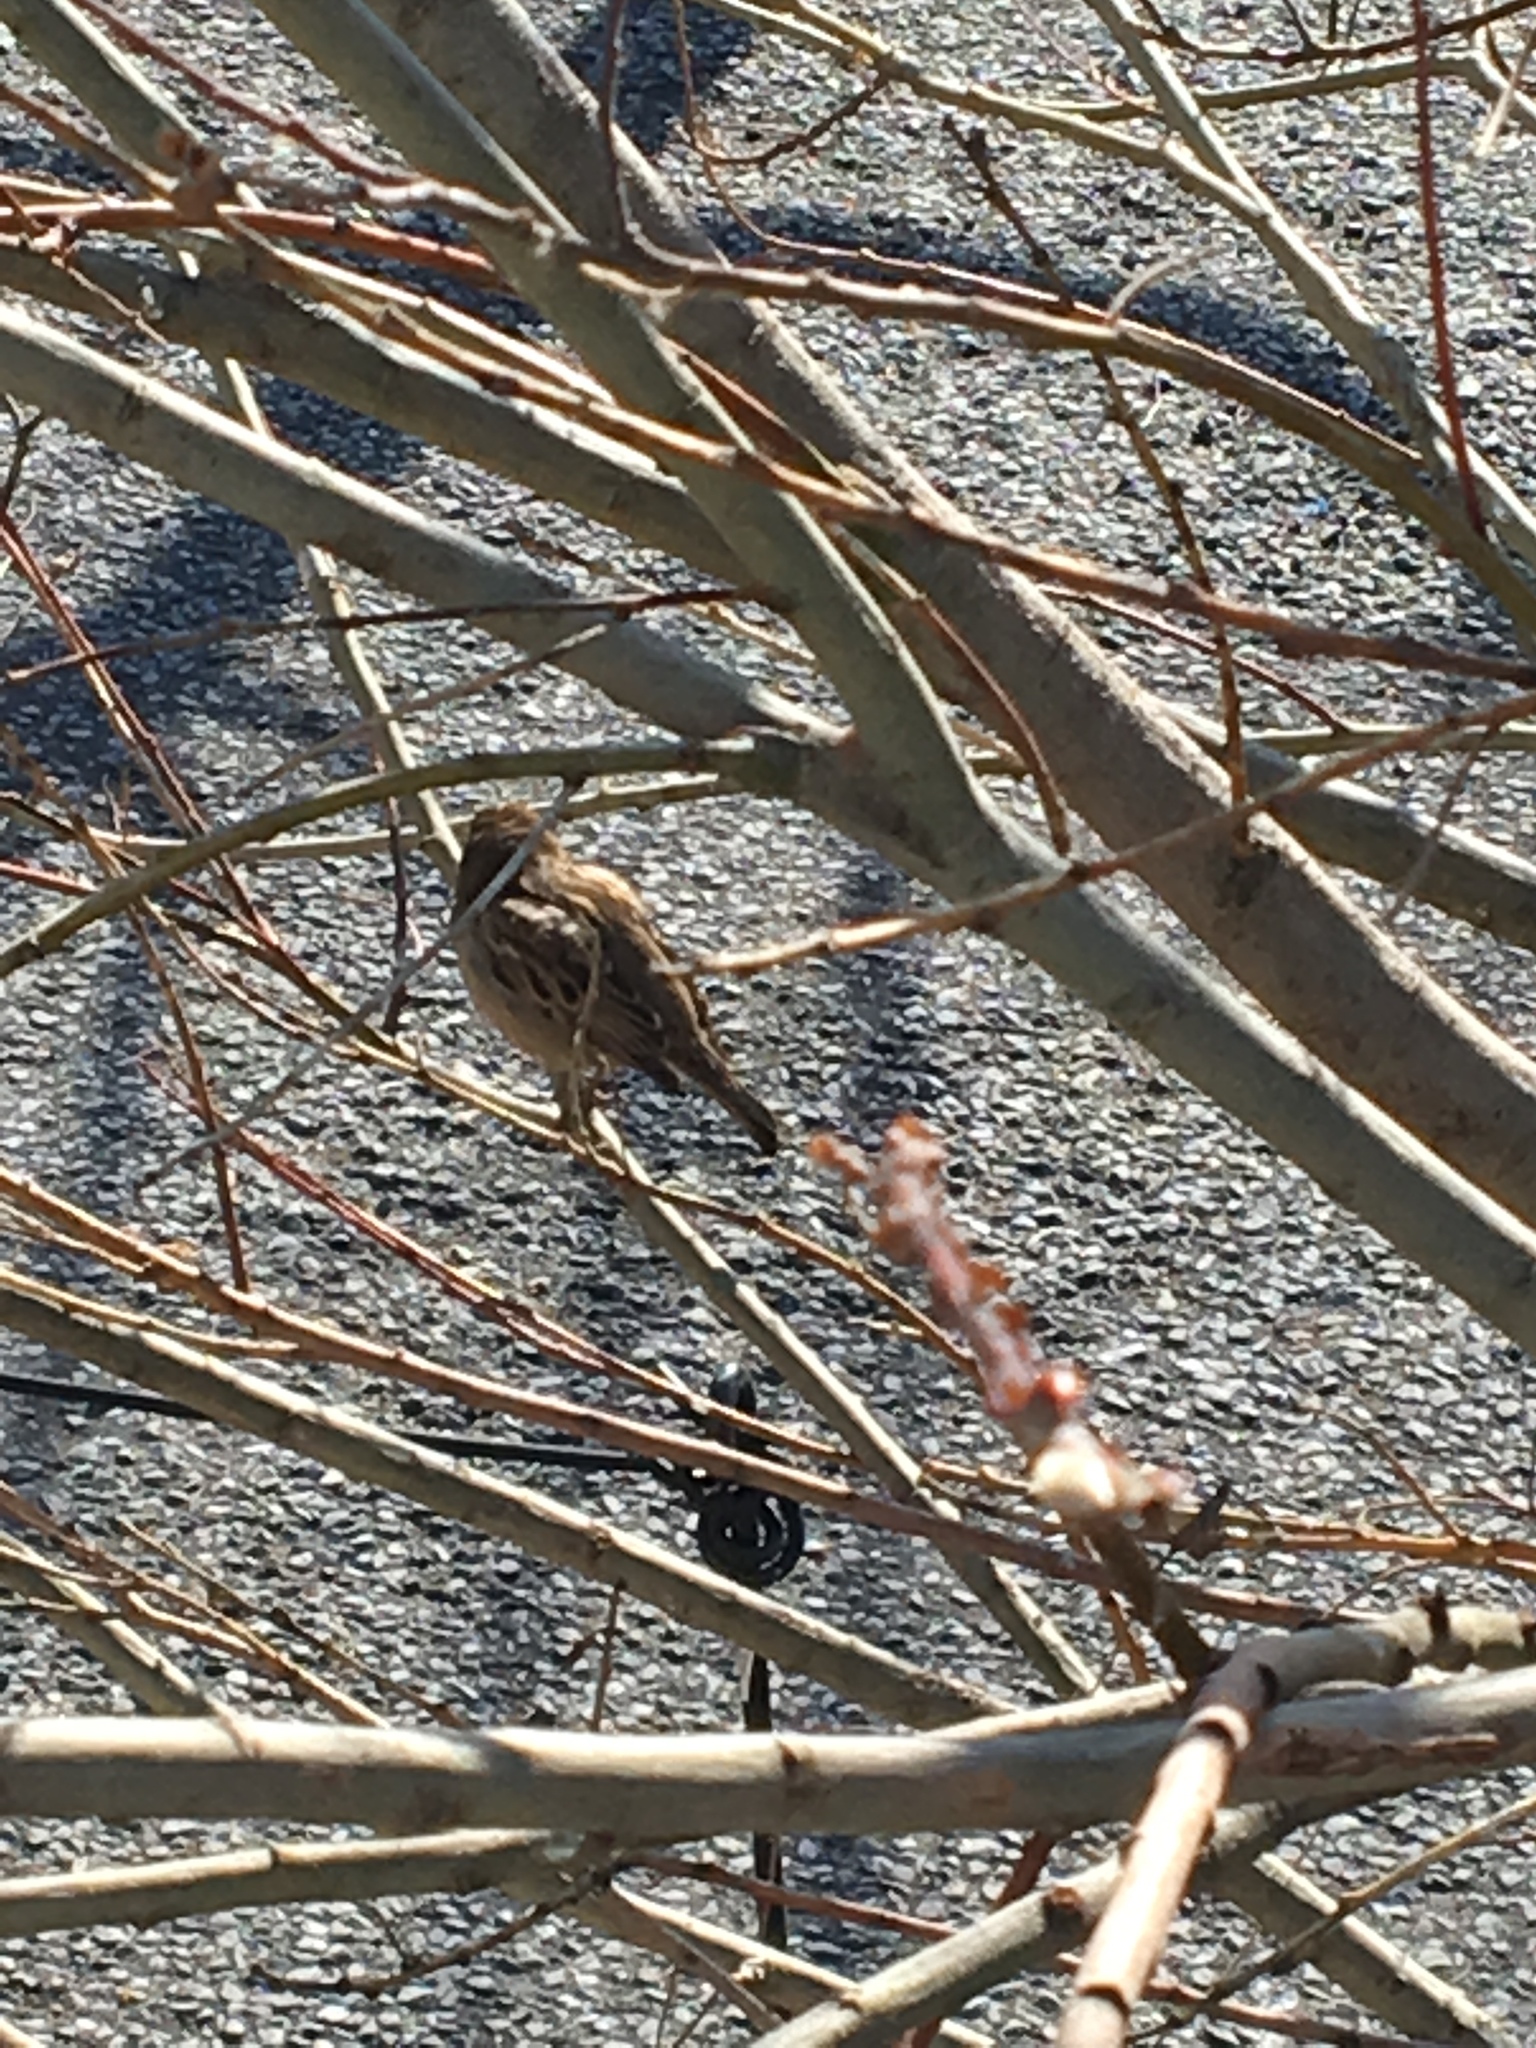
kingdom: Animalia
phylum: Chordata
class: Aves
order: Passeriformes
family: Passeridae
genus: Passer
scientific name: Passer domesticus
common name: House sparrow
